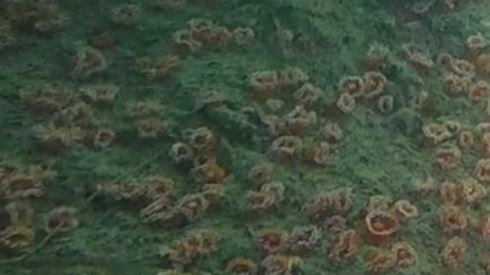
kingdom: Animalia
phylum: Cnidaria
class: Anthozoa
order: Corallimorpharia
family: Corallimorphidae
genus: Corynactis
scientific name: Corynactis californica
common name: Strawberry corallimorpharian
